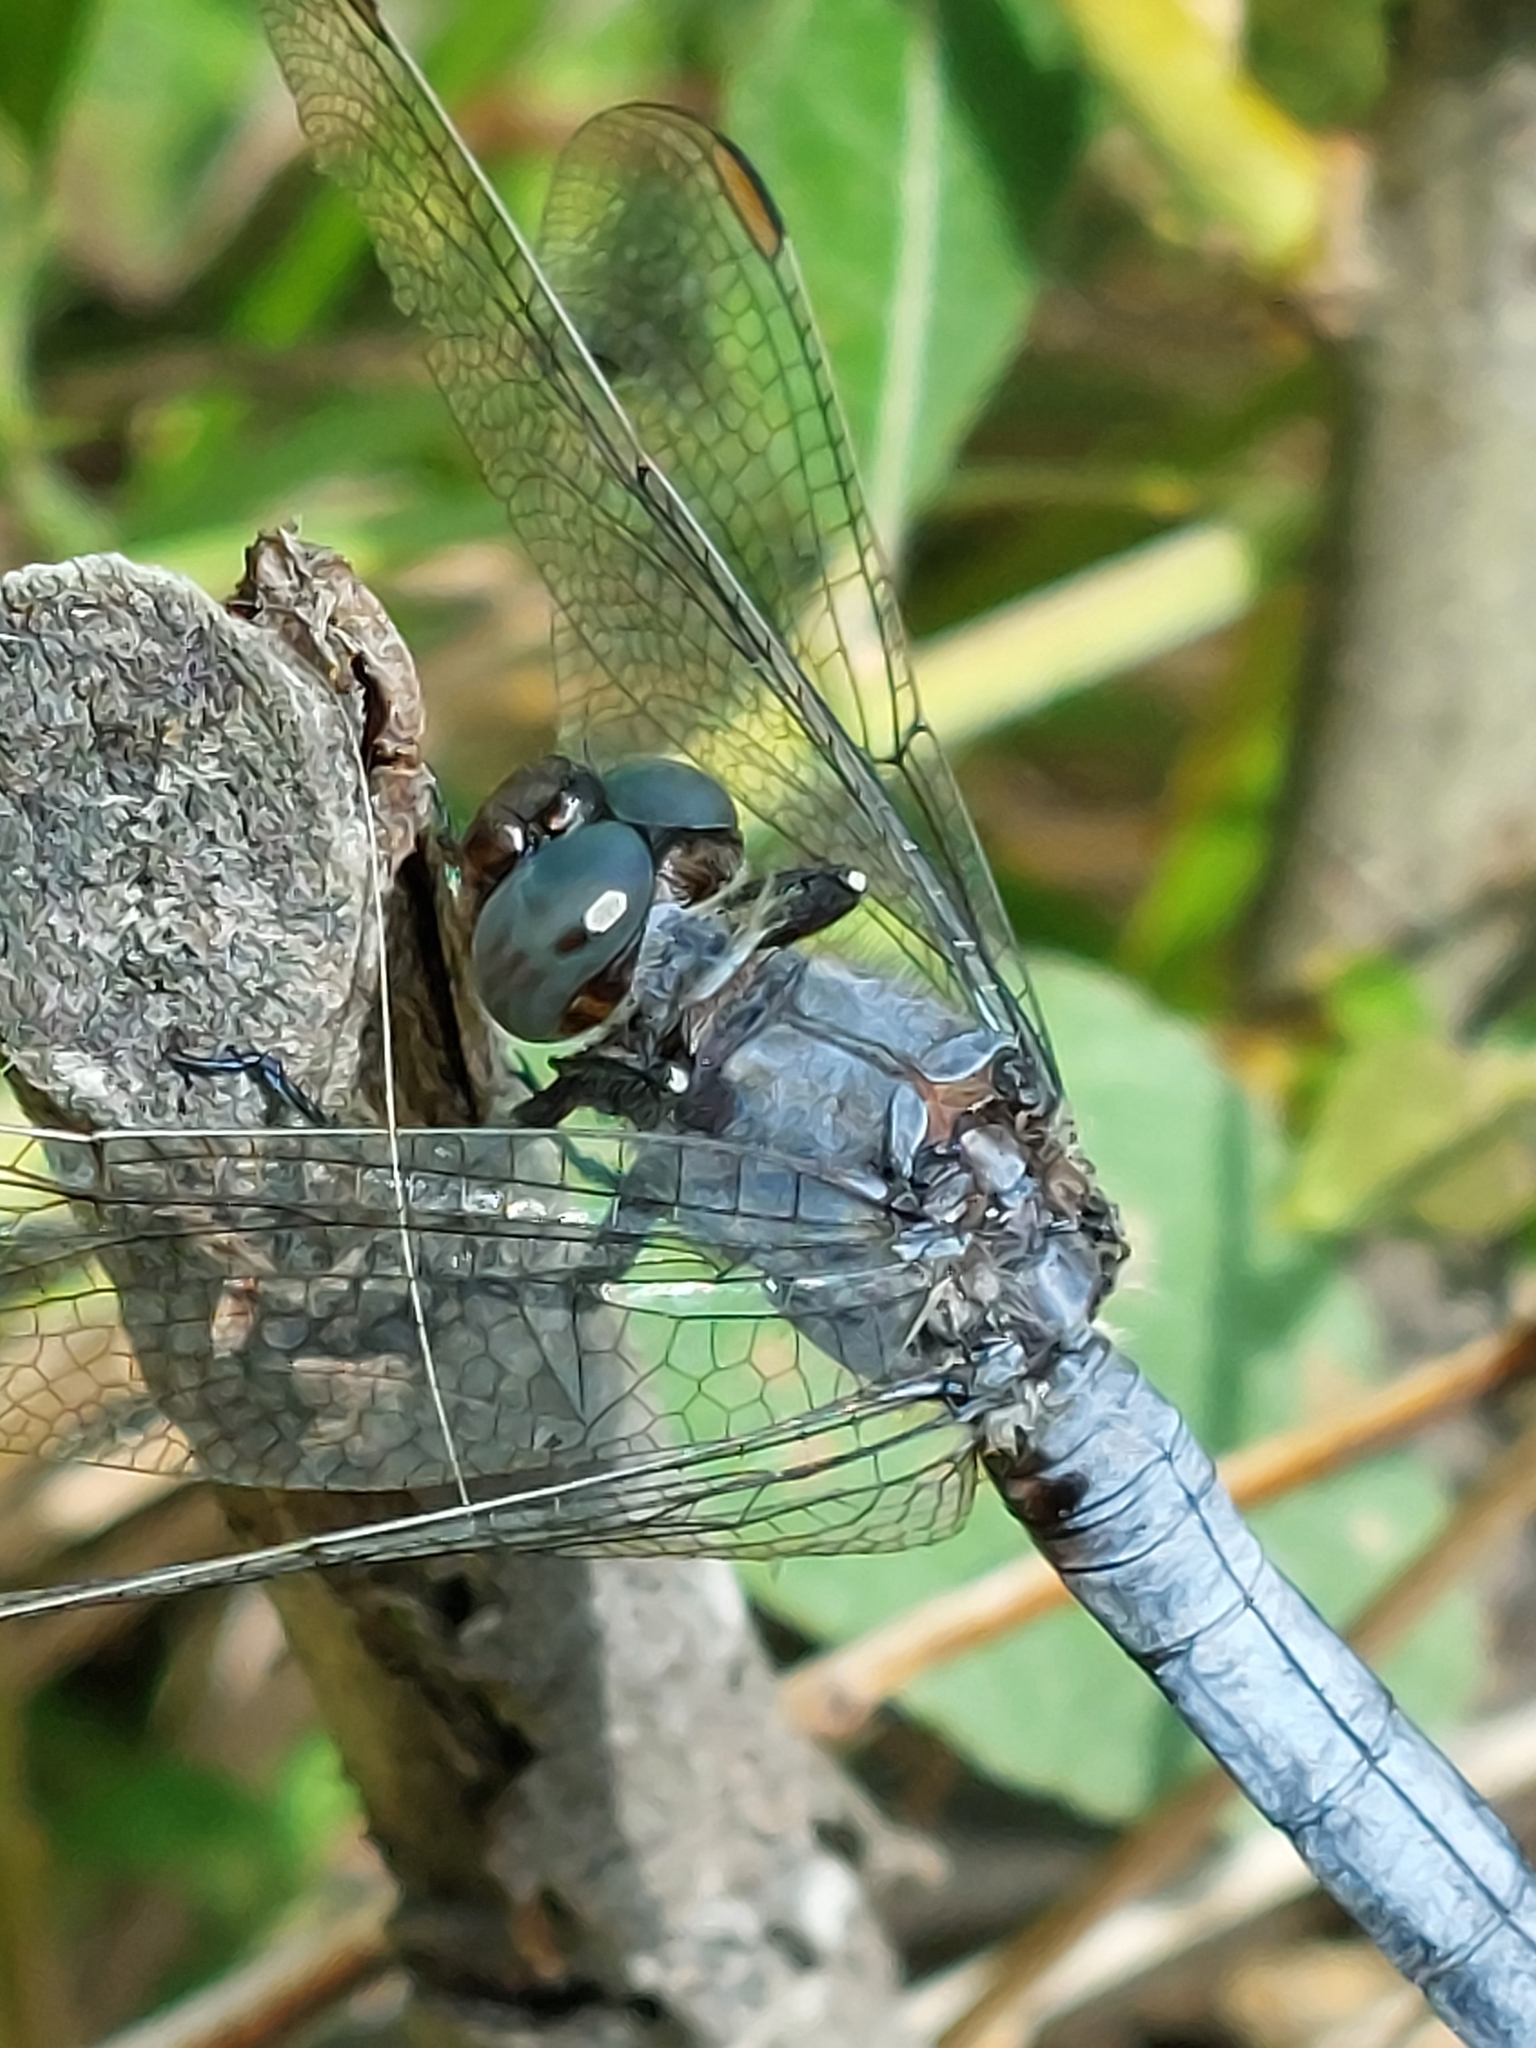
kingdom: Animalia
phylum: Arthropoda
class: Insecta
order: Odonata
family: Libellulidae
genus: Orthetrum
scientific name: Orthetrum coerulescens
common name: Keeled skimmer
